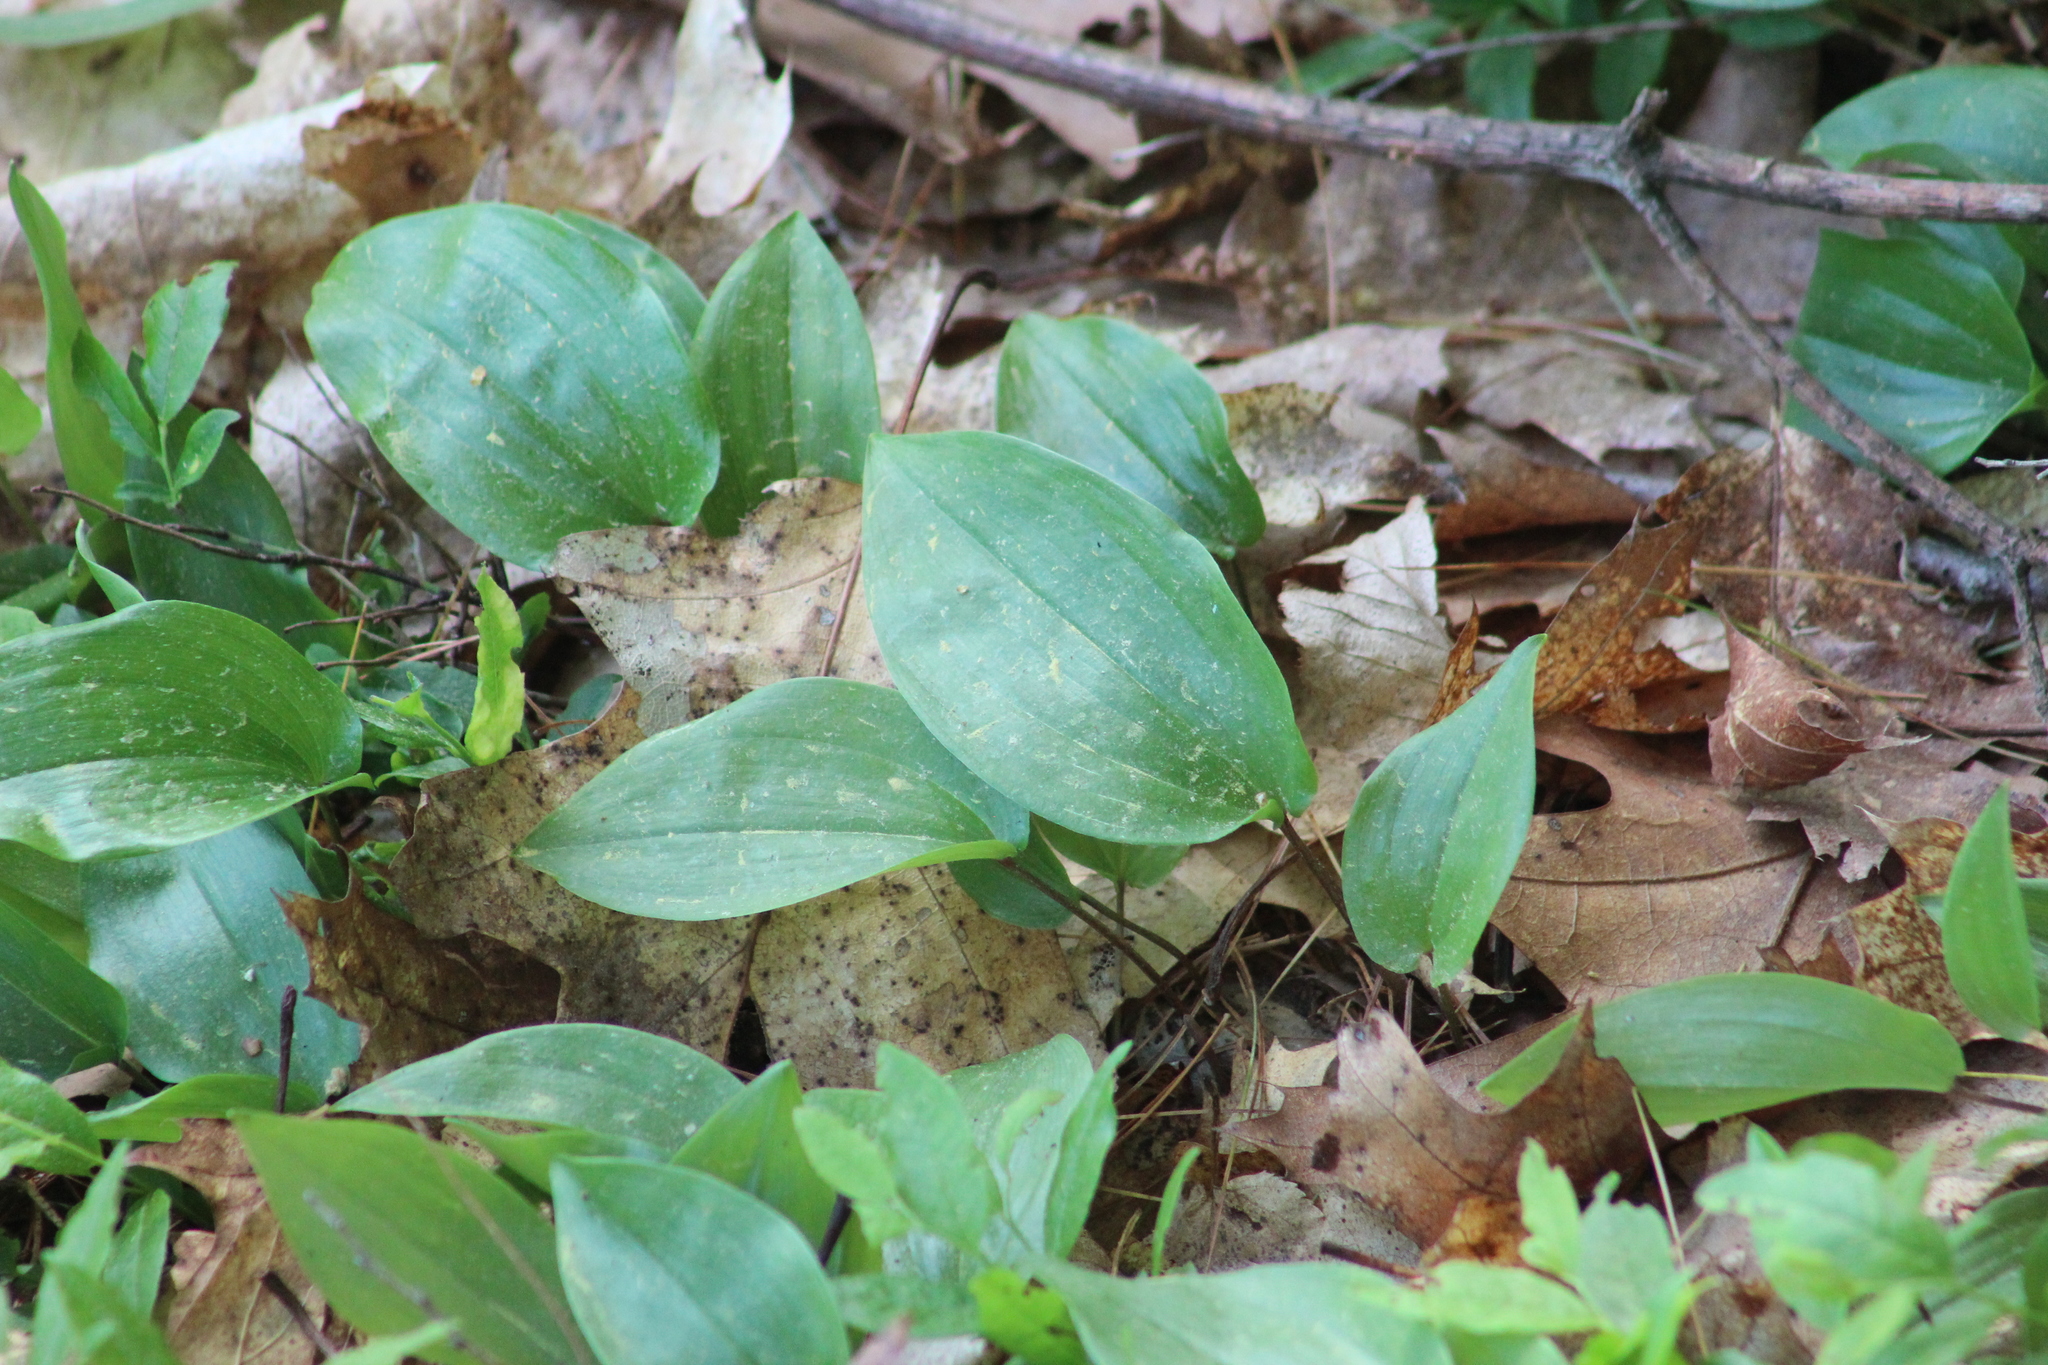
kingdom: Plantae
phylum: Tracheophyta
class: Liliopsida
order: Asparagales
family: Asparagaceae
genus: Maianthemum
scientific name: Maianthemum canadense
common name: False lily-of-the-valley
